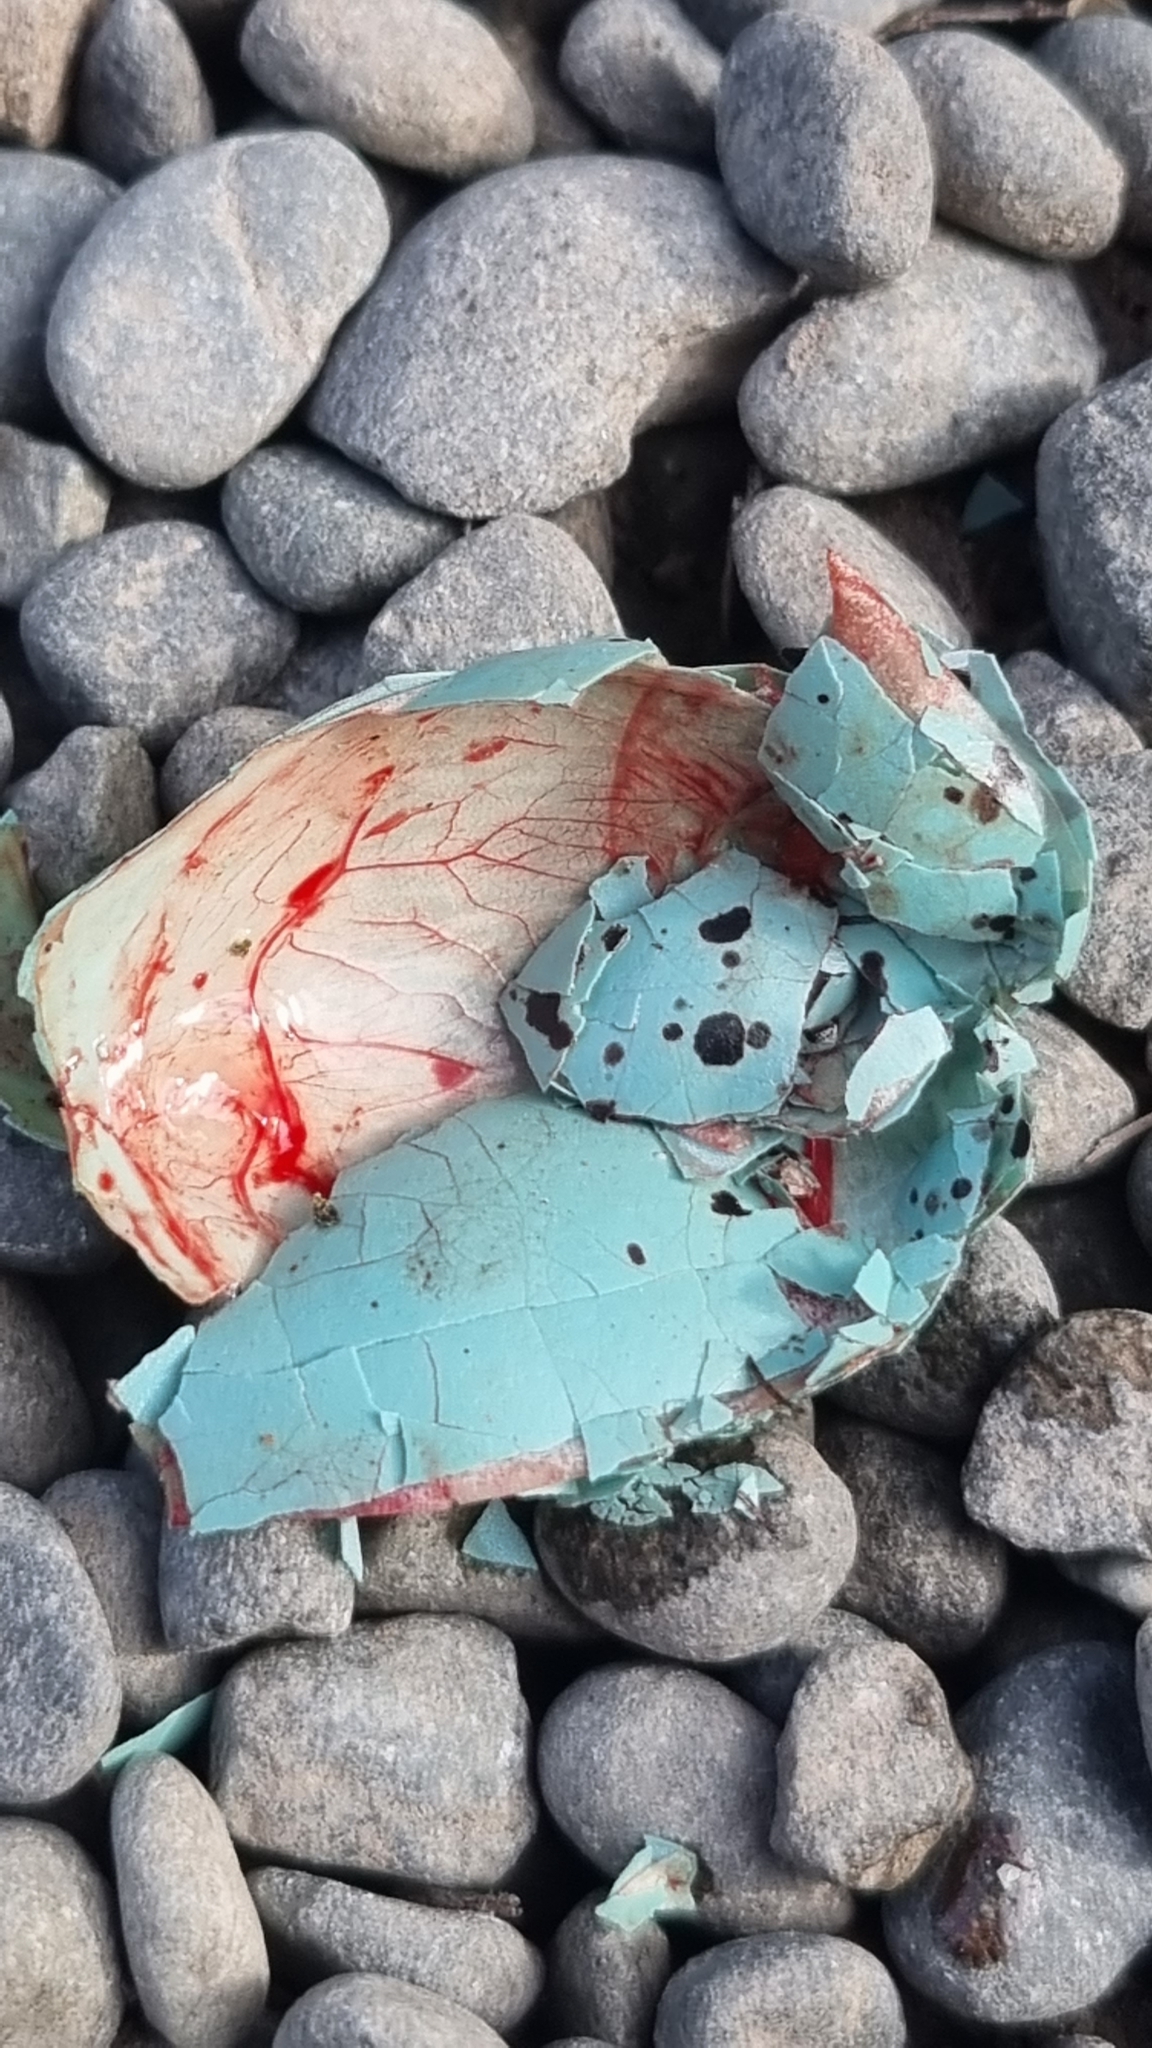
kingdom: Animalia
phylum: Chordata
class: Aves
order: Passeriformes
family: Turdidae
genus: Turdus
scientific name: Turdus philomelos
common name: Song thrush
